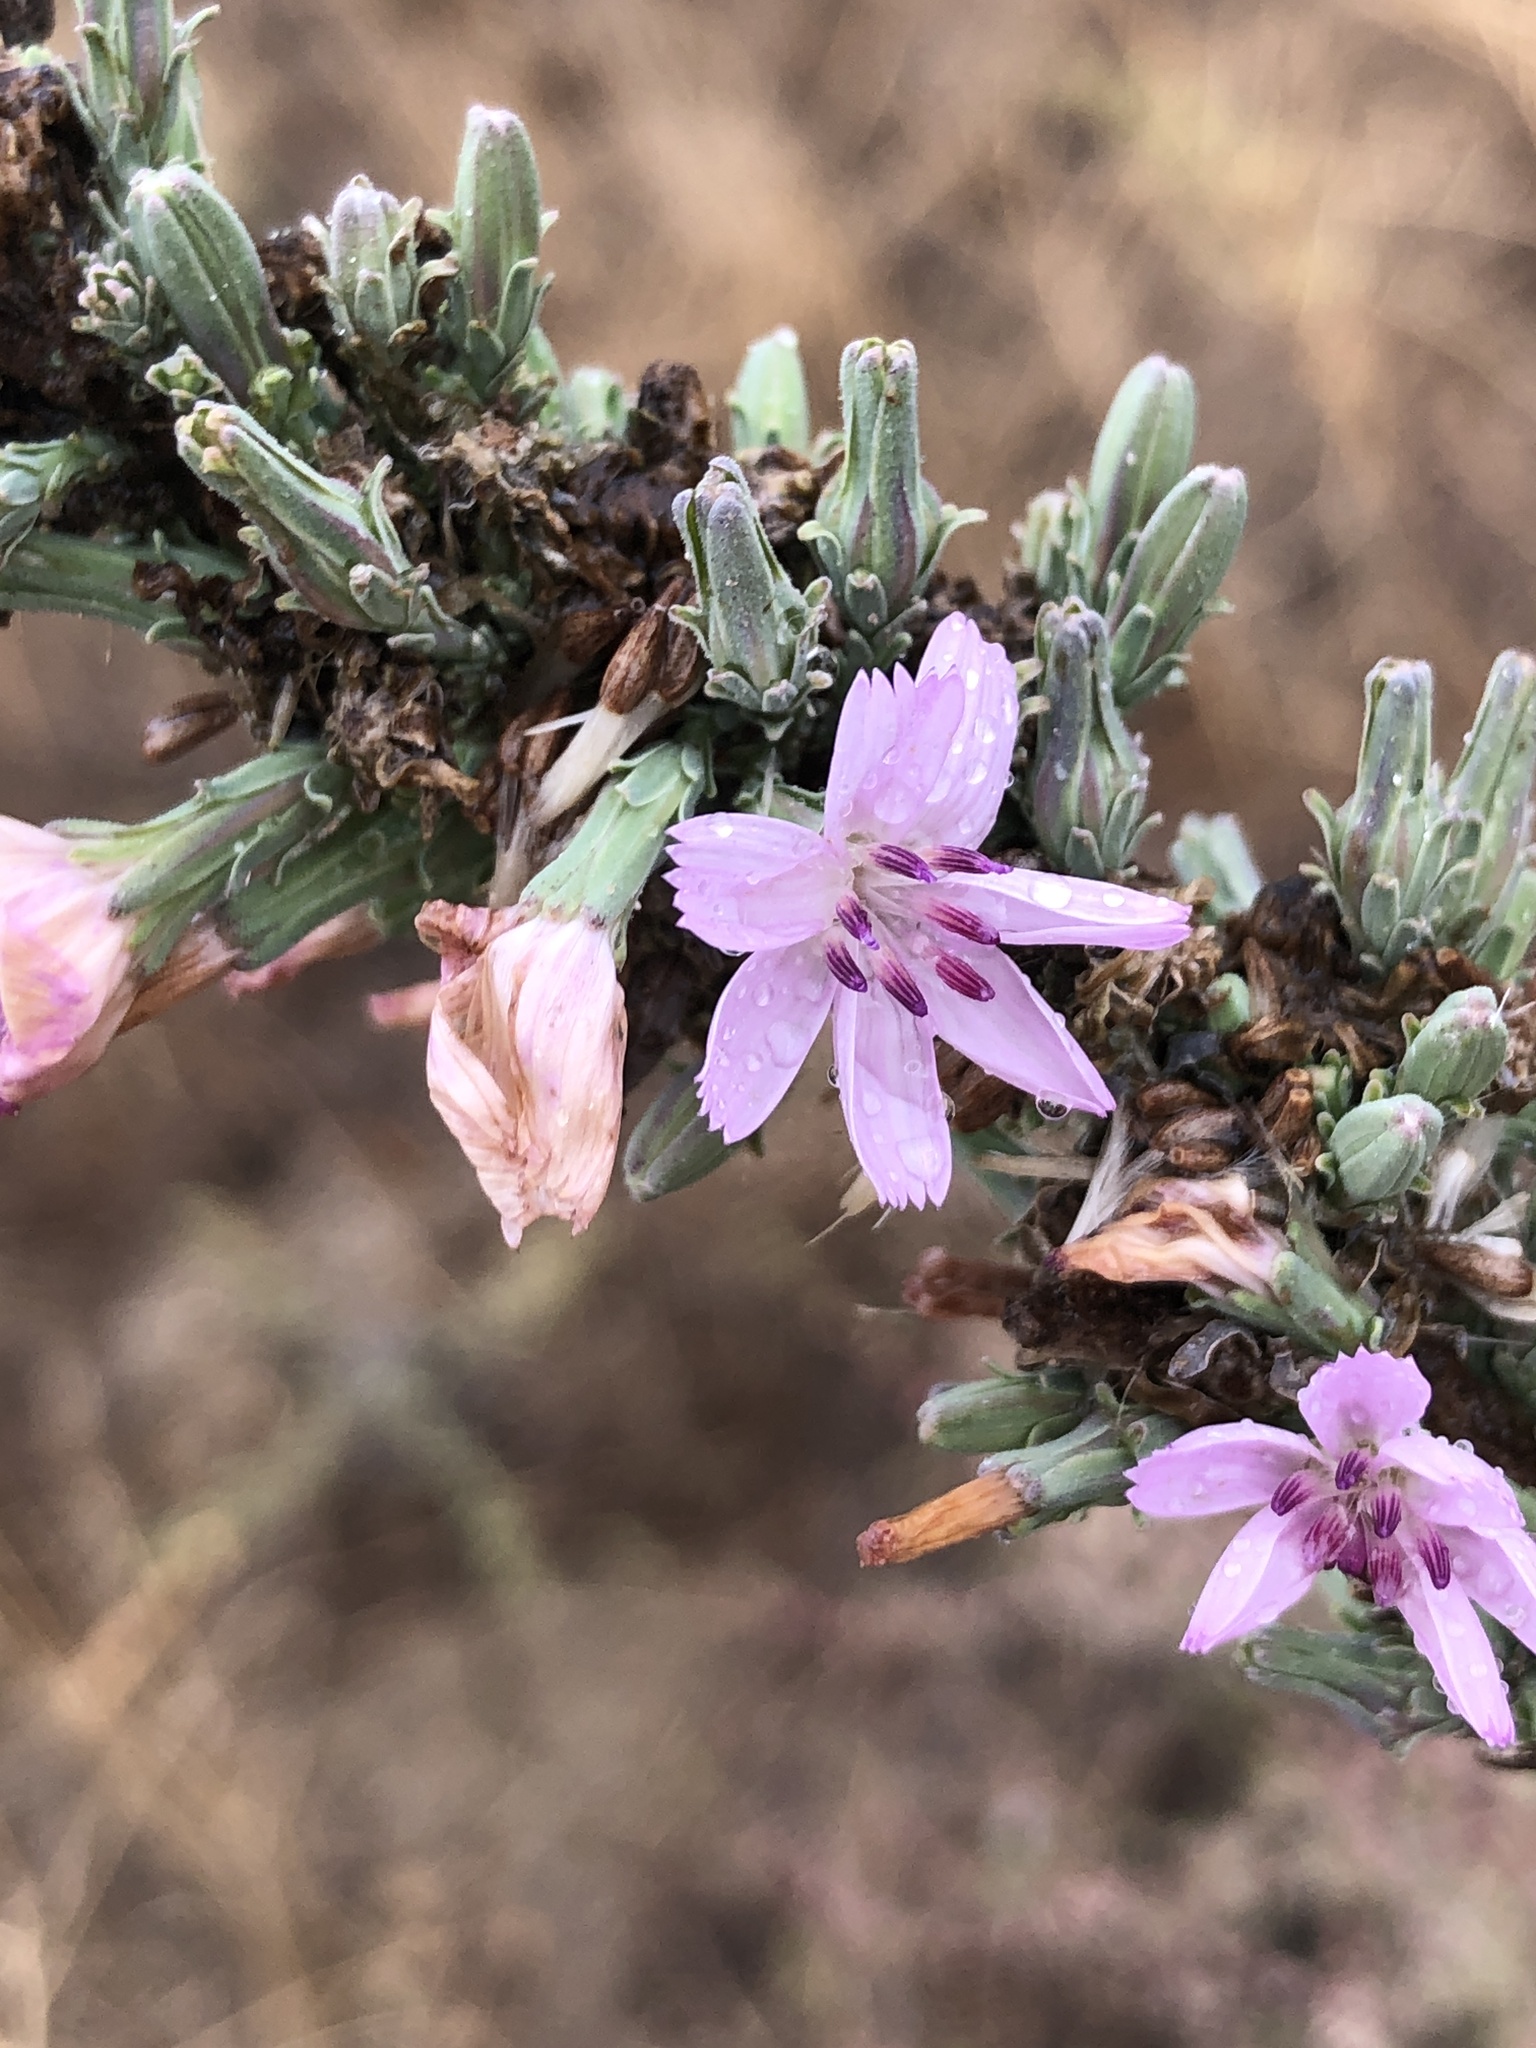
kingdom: Plantae
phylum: Tracheophyta
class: Magnoliopsida
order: Asterales
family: Asteraceae
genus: Stephanomeria
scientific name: Stephanomeria virgata
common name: Virgate wirelettuce
